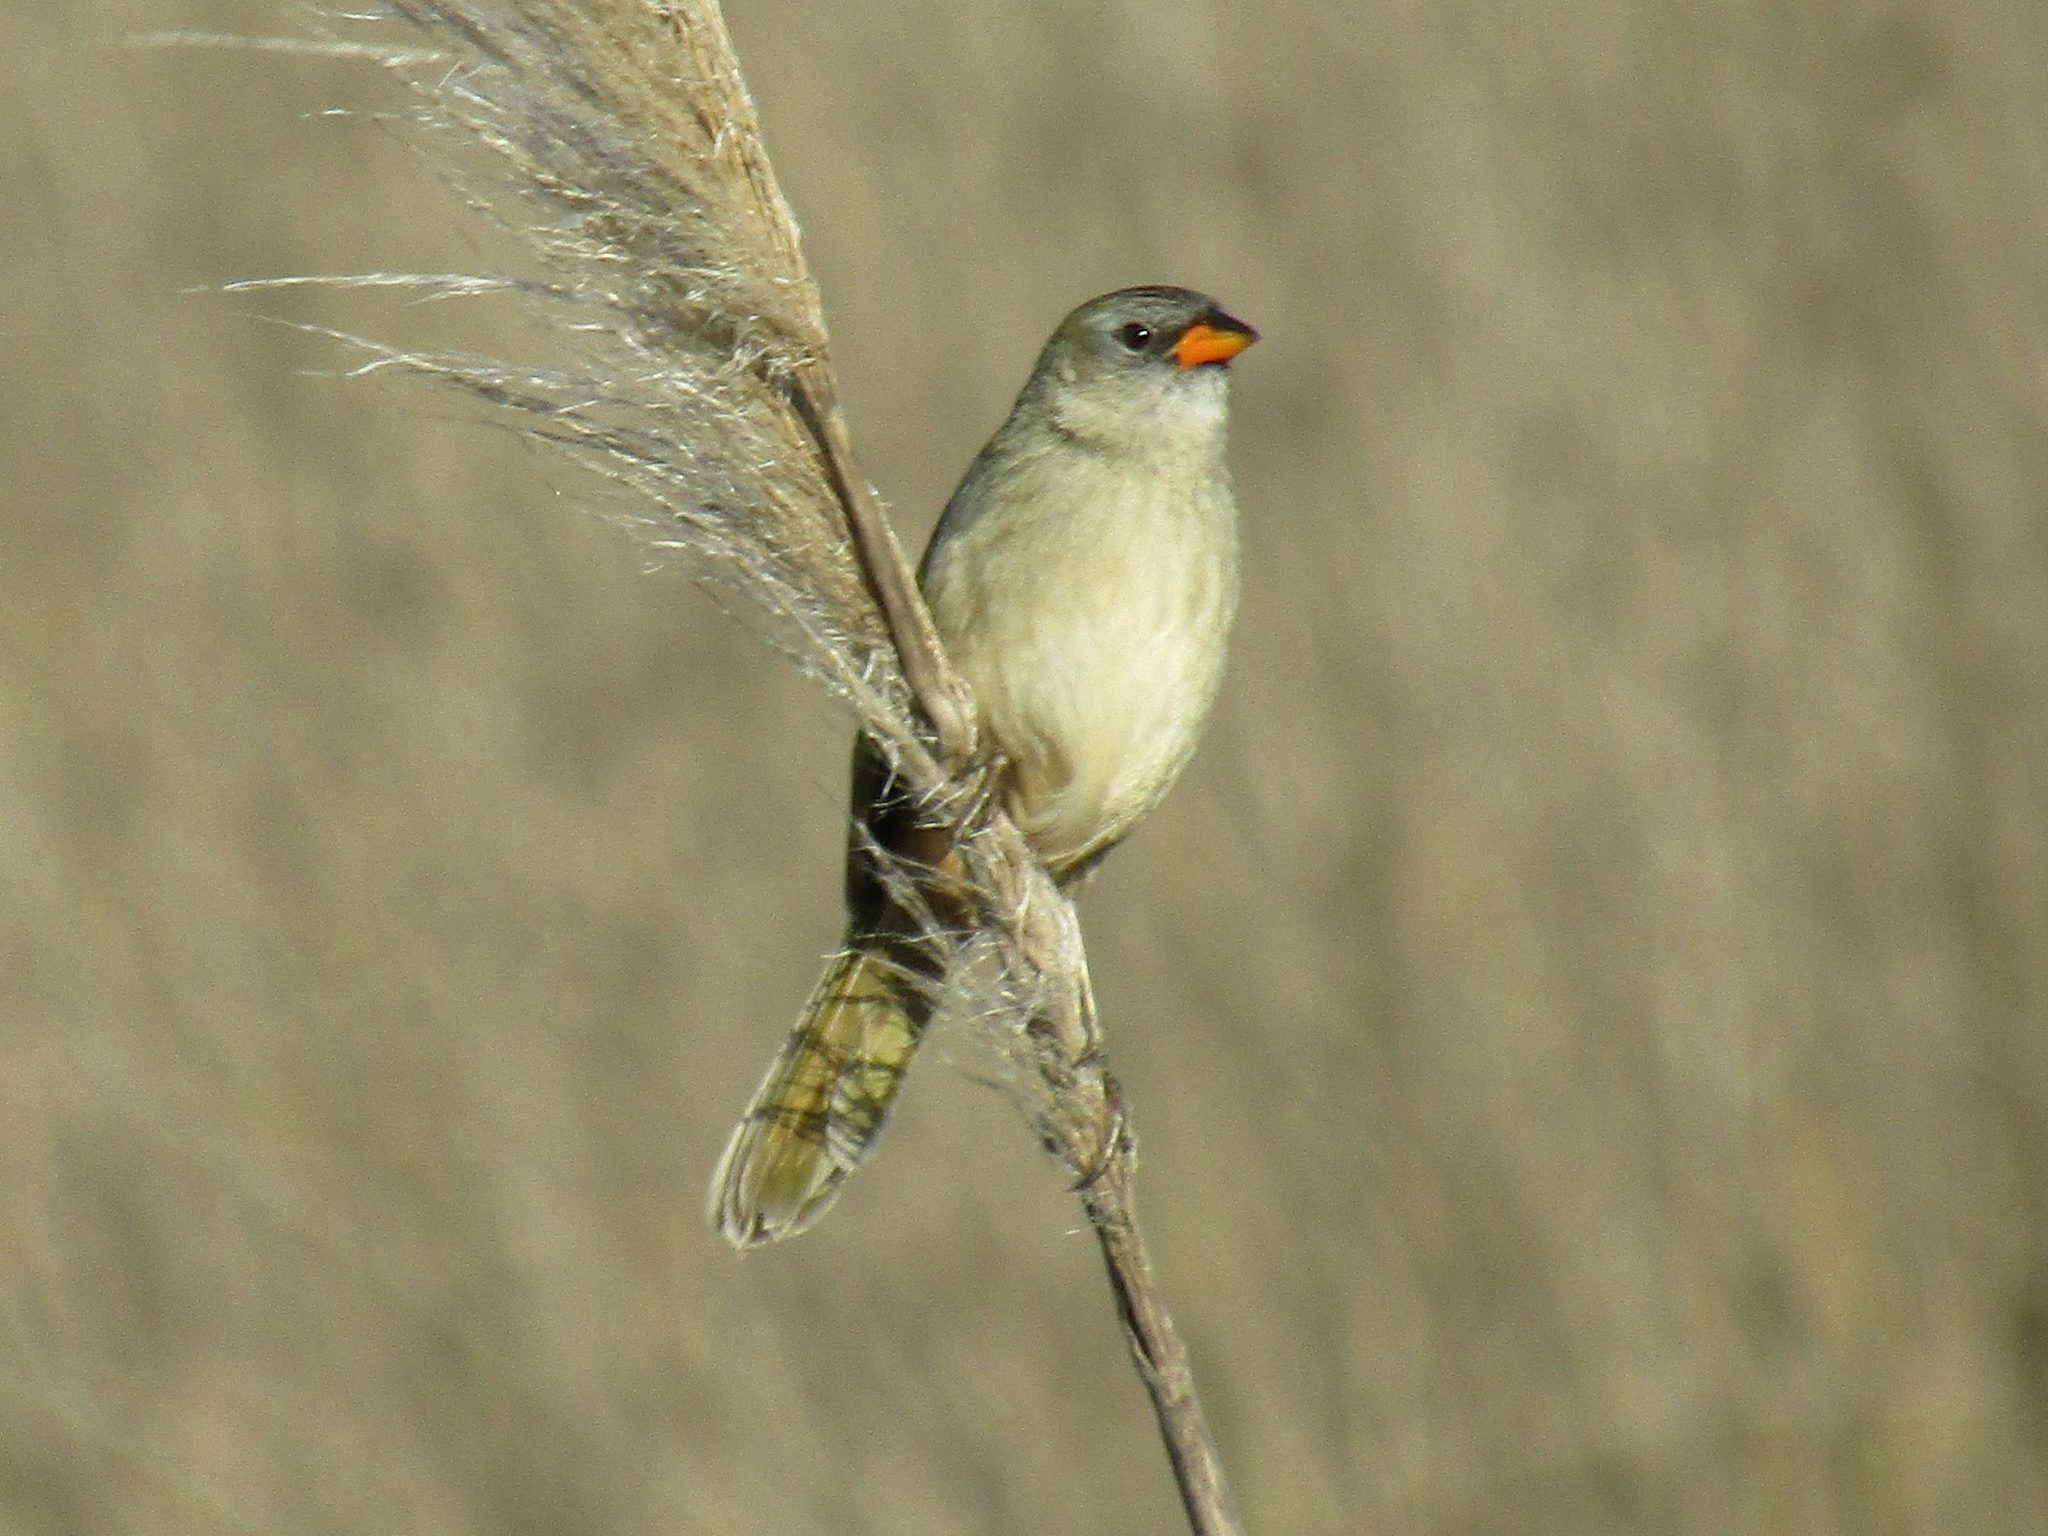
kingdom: Animalia
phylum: Chordata
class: Aves
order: Passeriformes
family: Thraupidae
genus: Embernagra
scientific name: Embernagra platensis
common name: Pampa finch
